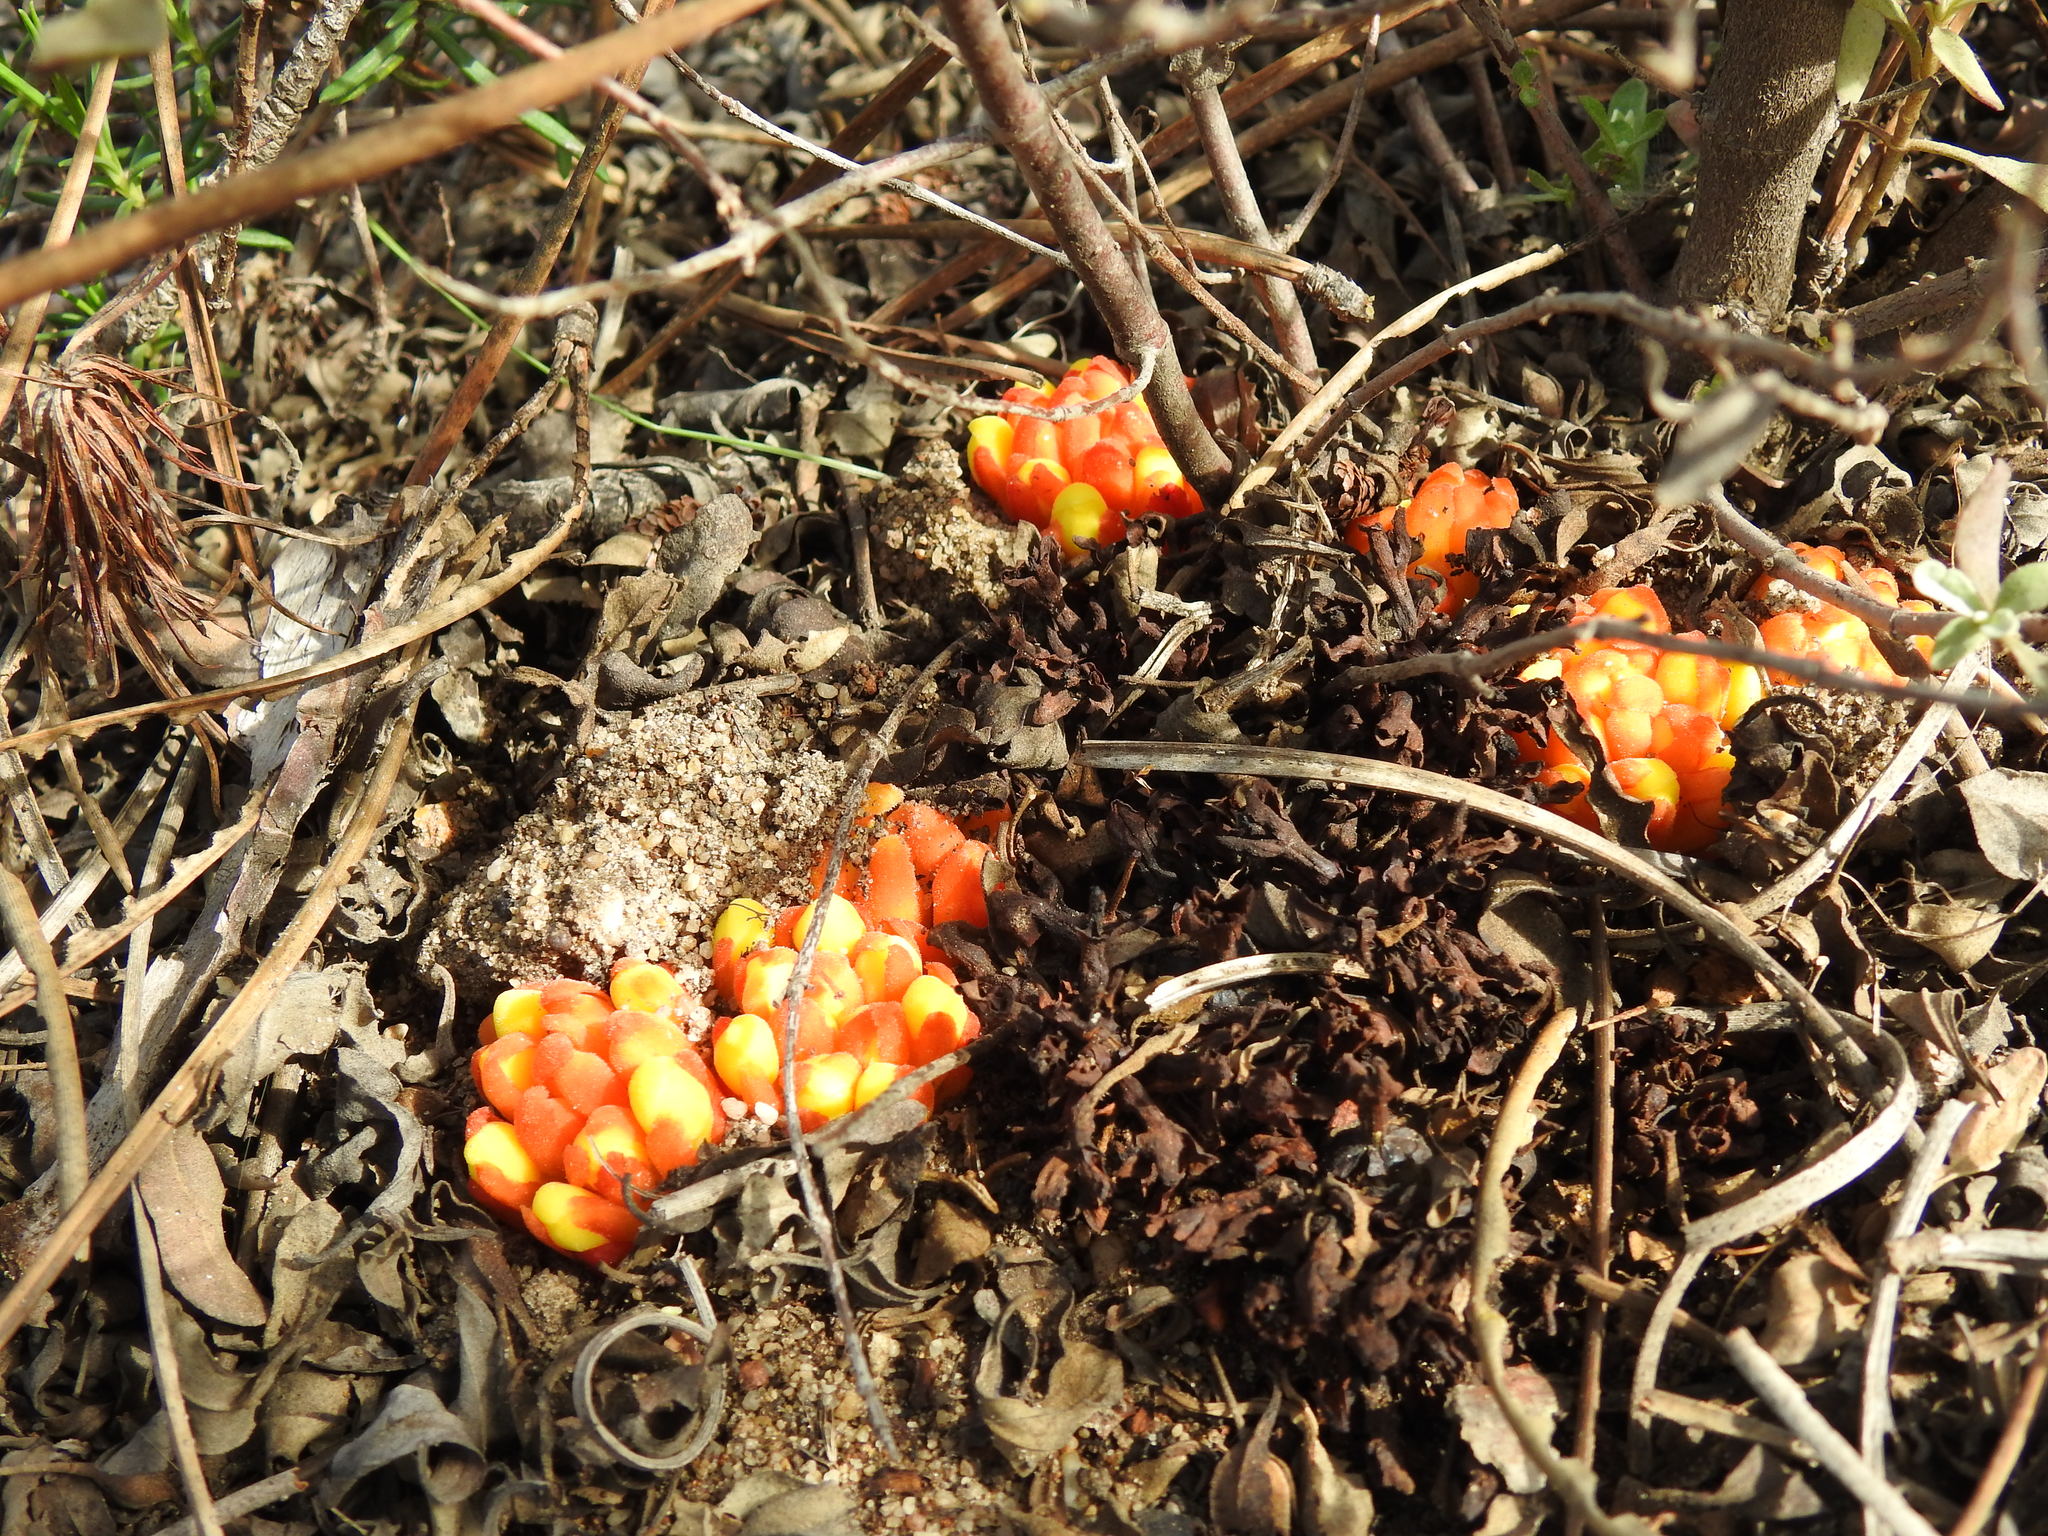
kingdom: Plantae
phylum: Tracheophyta
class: Magnoliopsida
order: Malvales
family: Cytinaceae
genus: Cytinus
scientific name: Cytinus hypocistis
